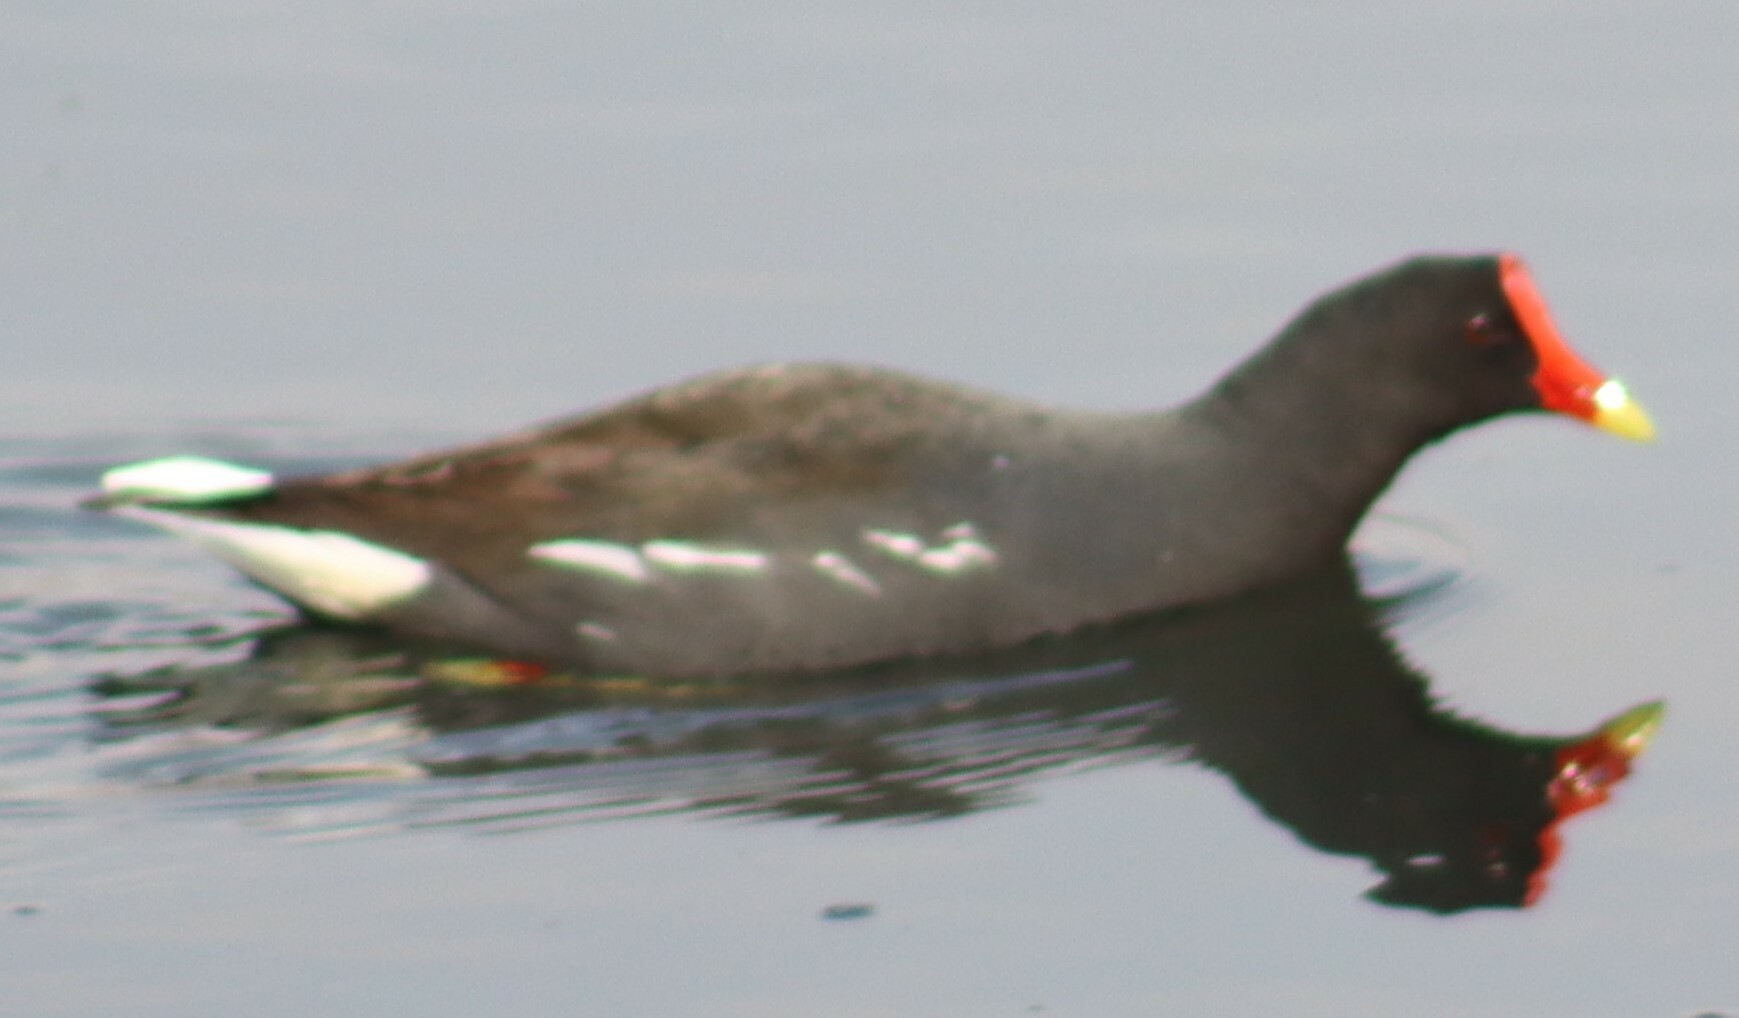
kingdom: Animalia
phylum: Chordata
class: Aves
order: Gruiformes
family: Rallidae
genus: Gallinula
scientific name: Gallinula chloropus
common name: Common moorhen
